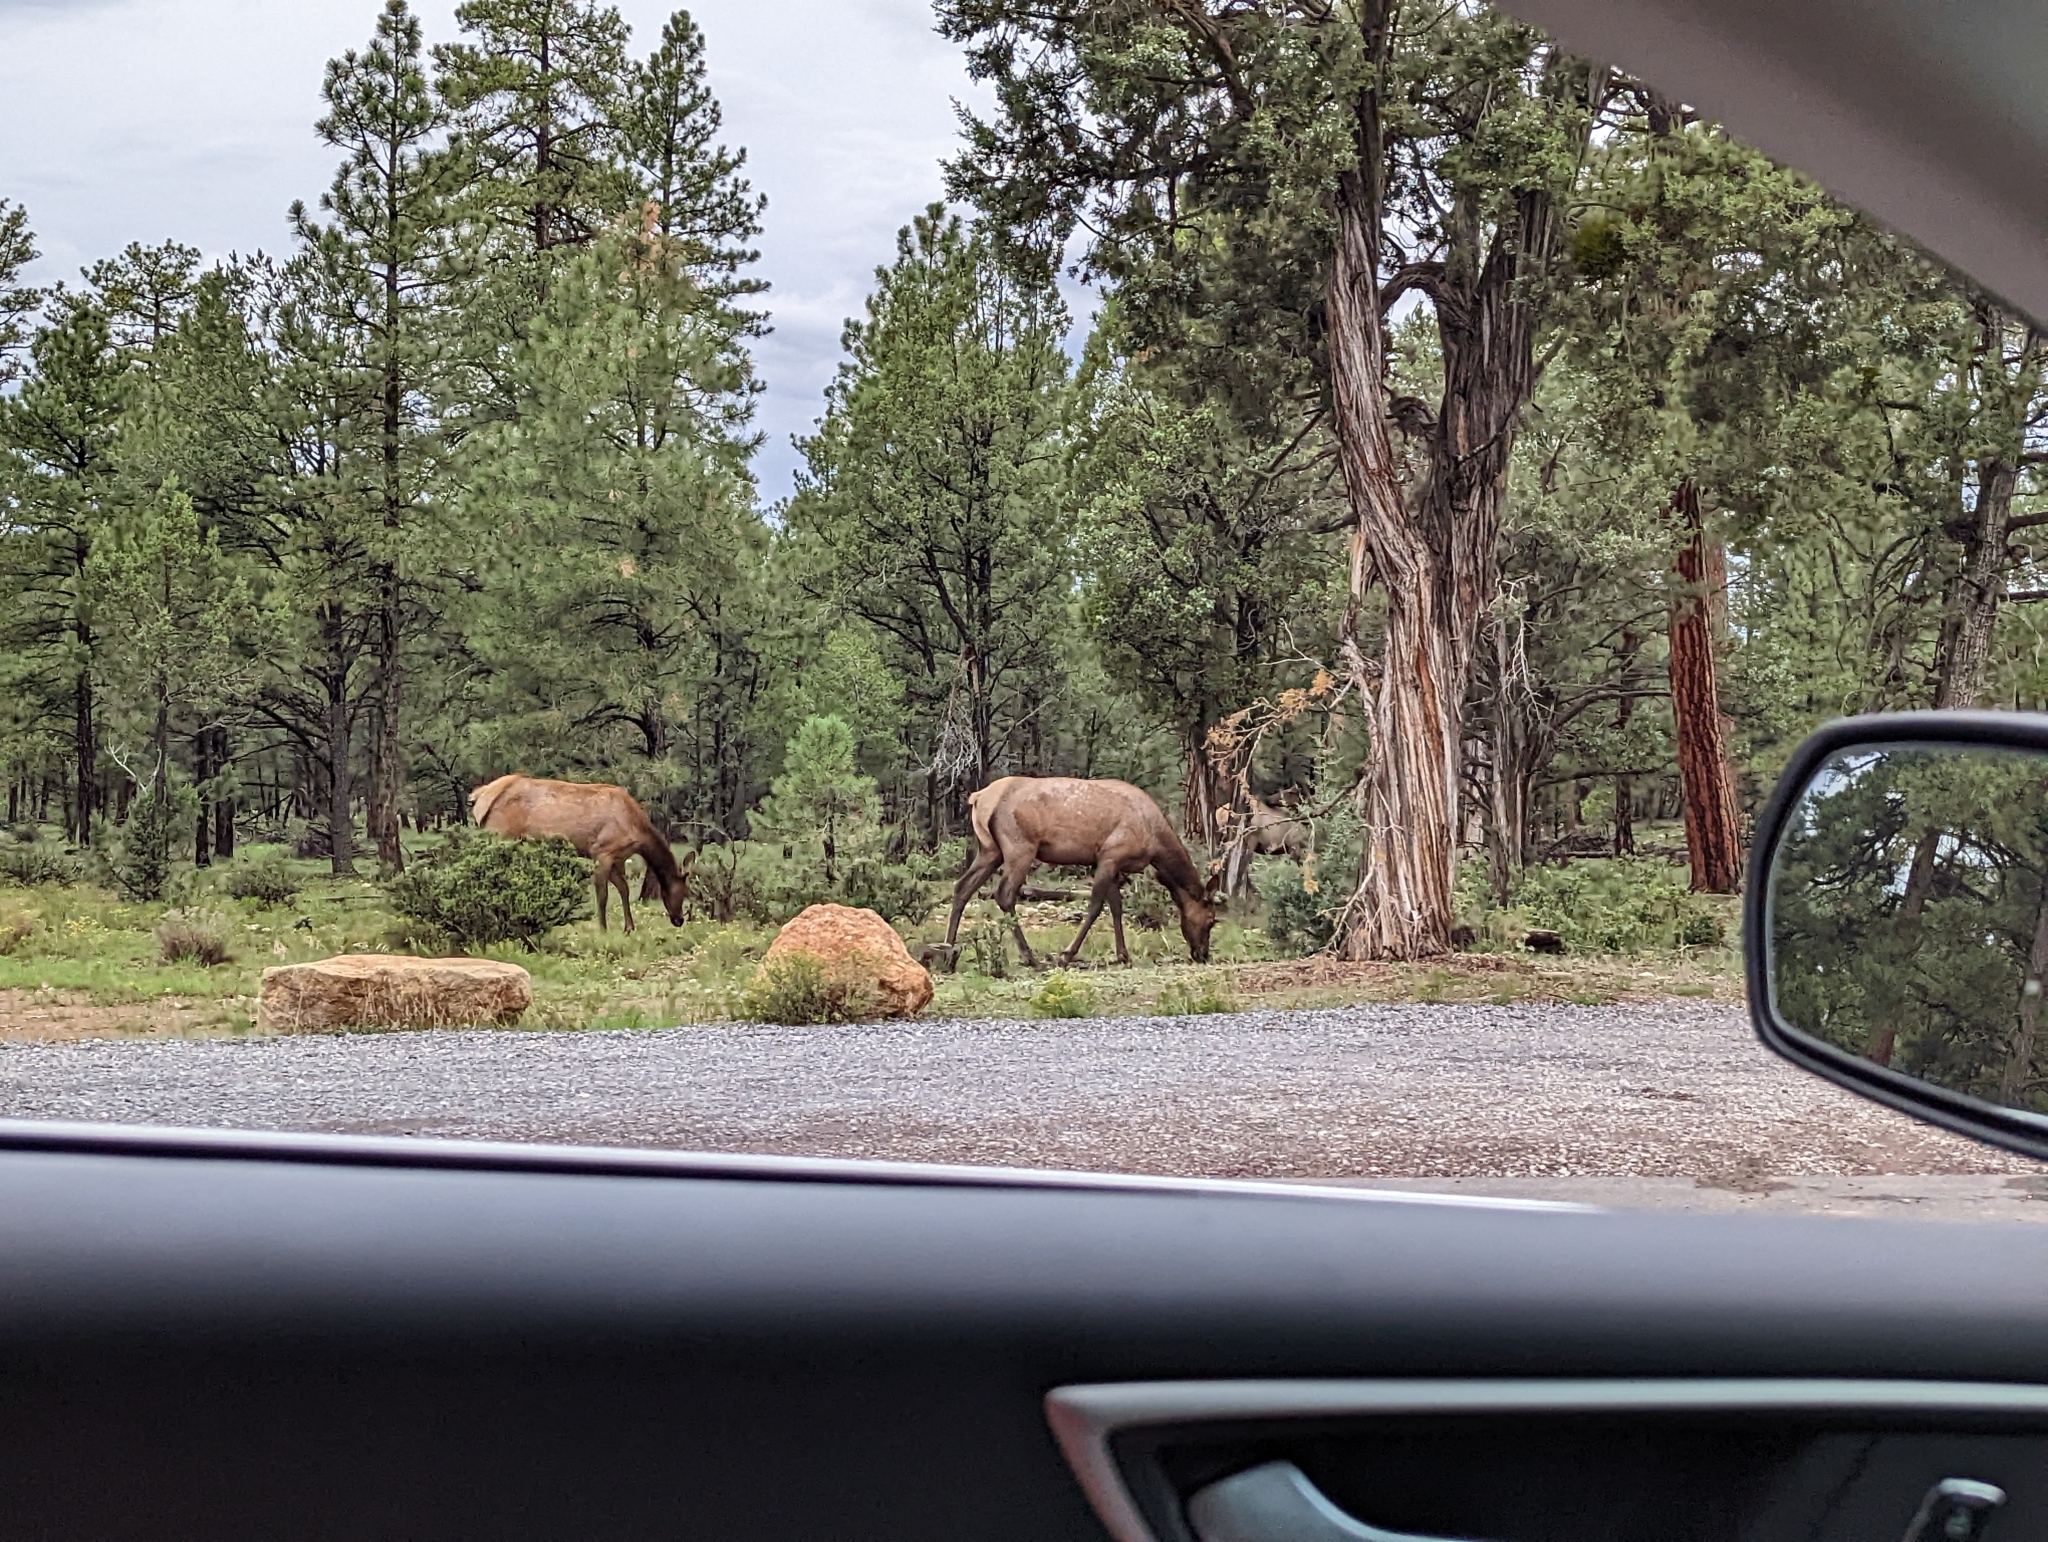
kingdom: Animalia
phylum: Chordata
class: Mammalia
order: Artiodactyla
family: Cervidae
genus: Cervus
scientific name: Cervus elaphus
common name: Red deer
